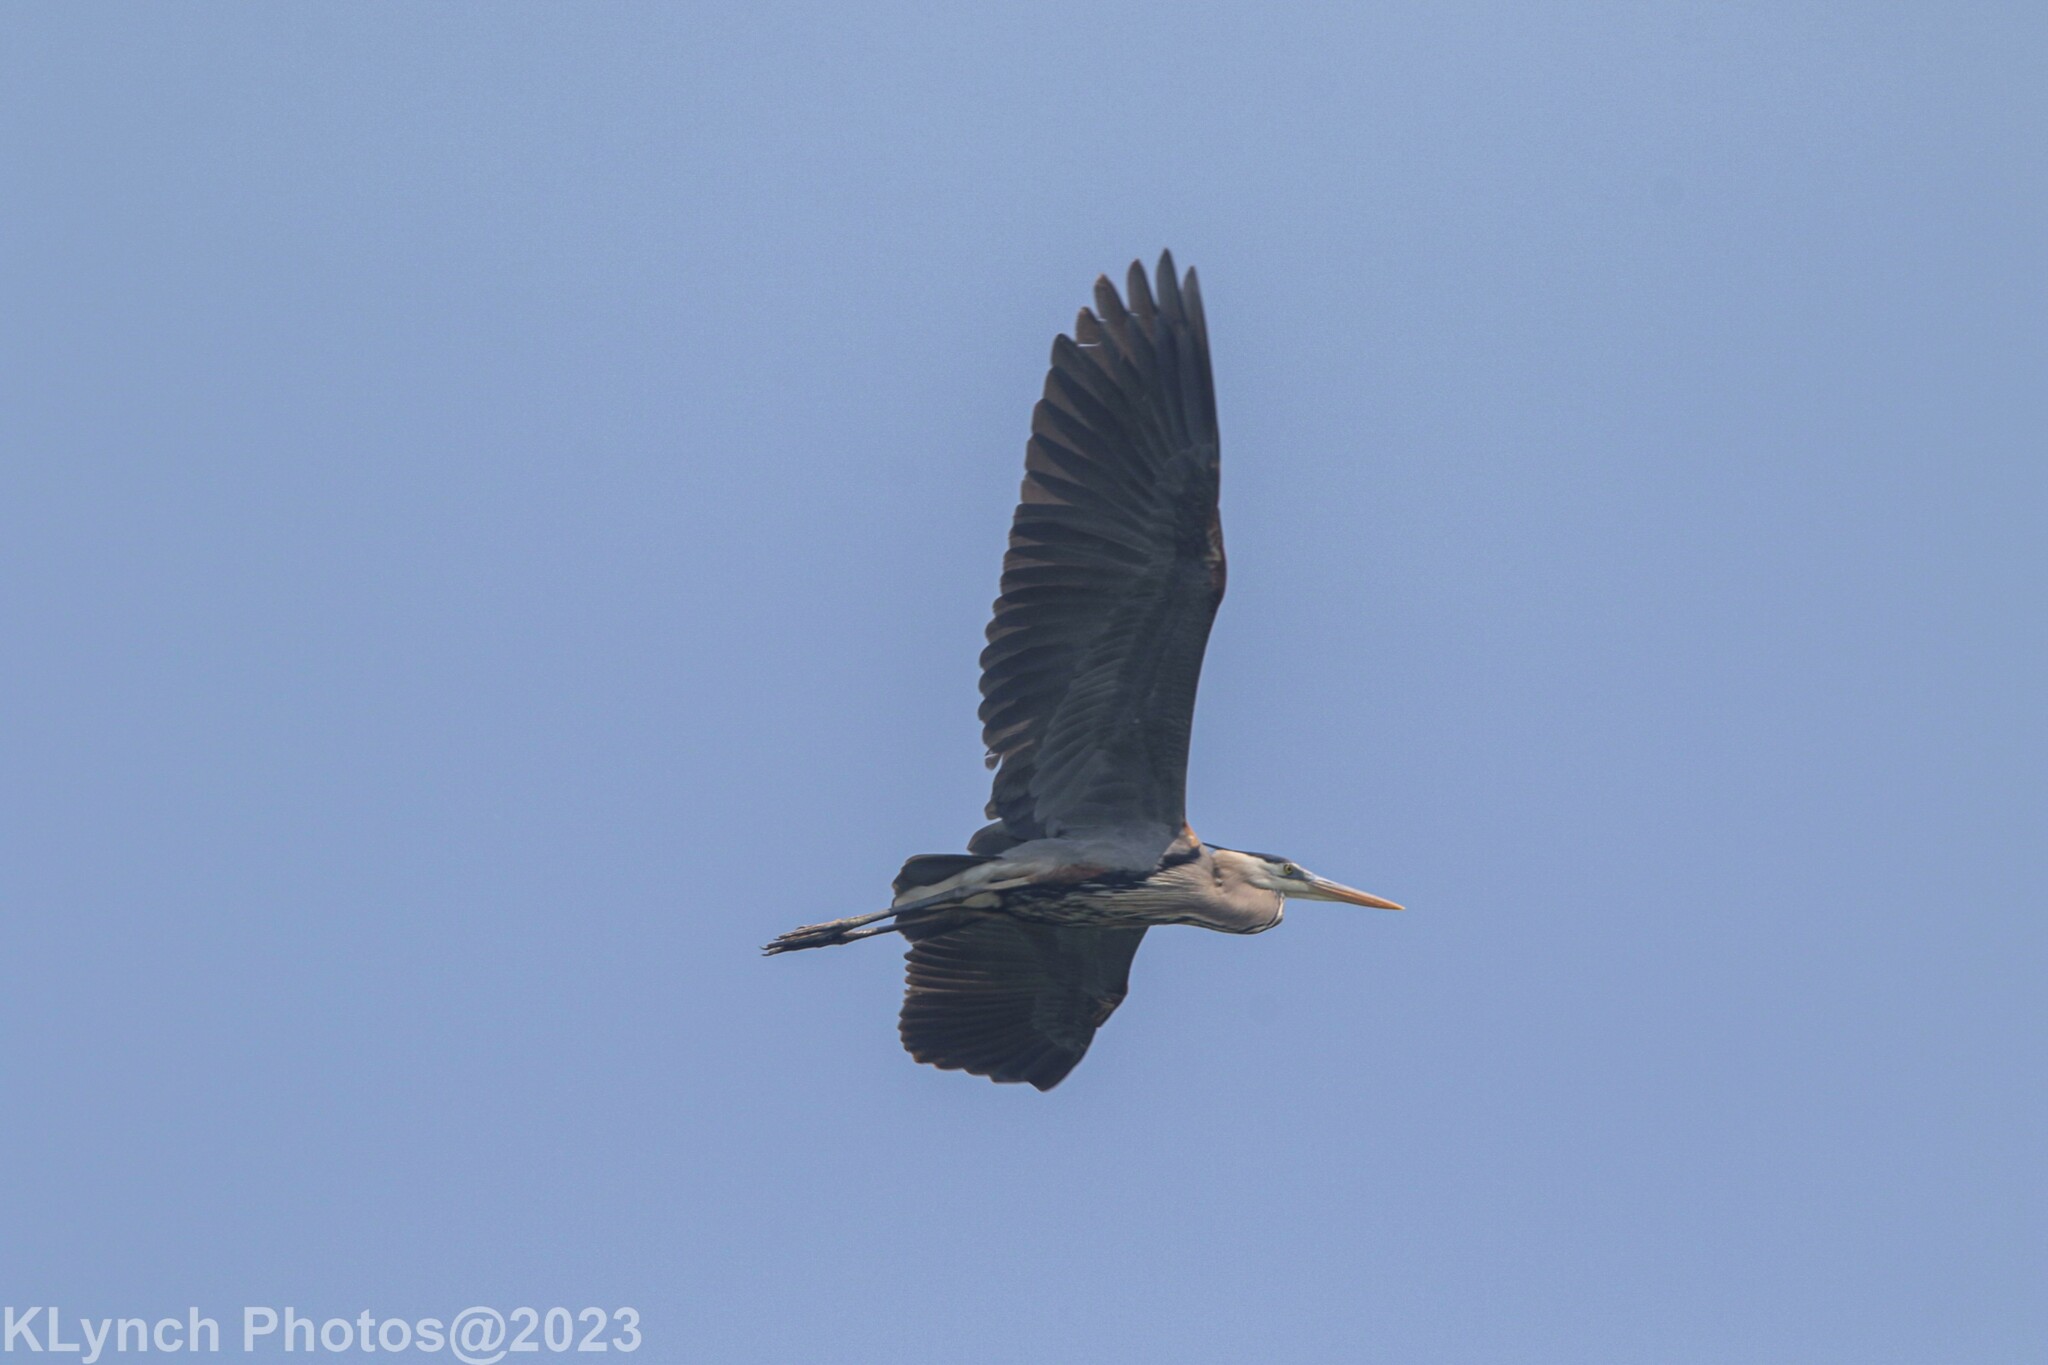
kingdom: Animalia
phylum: Chordata
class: Aves
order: Pelecaniformes
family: Ardeidae
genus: Ardea
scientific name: Ardea herodias
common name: Great blue heron
